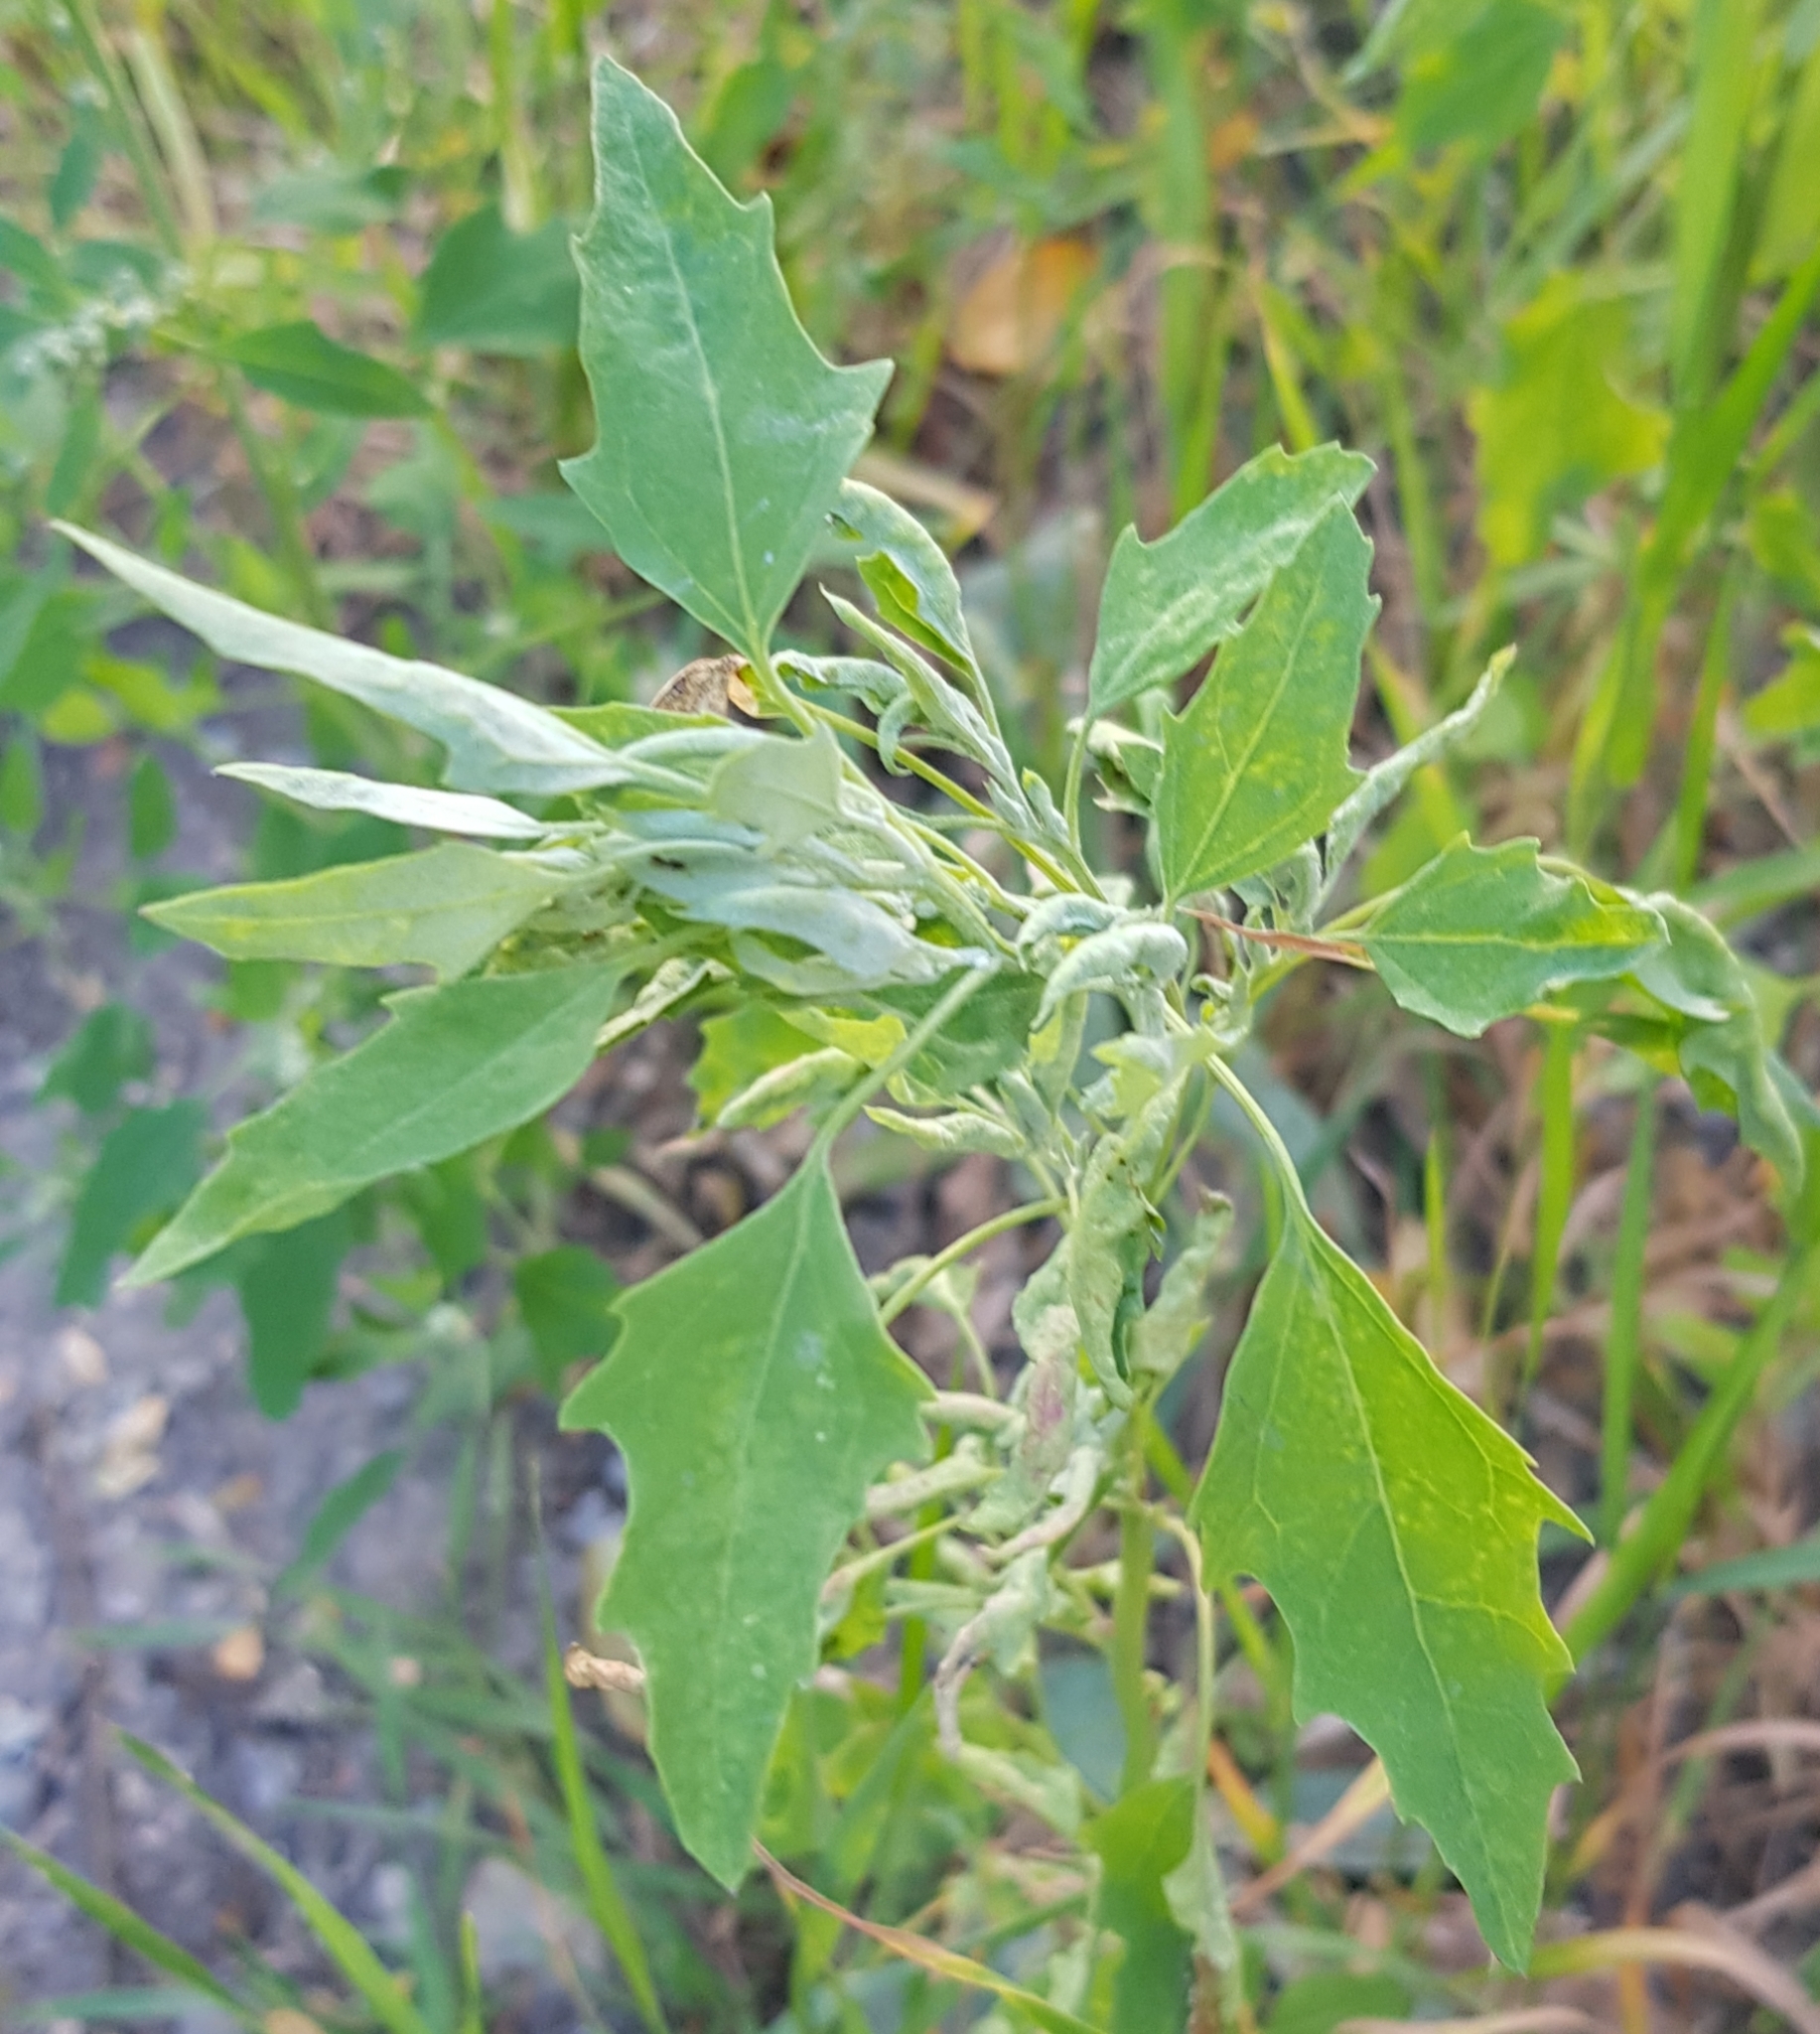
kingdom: Plantae
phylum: Tracheophyta
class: Magnoliopsida
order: Caryophyllales
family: Amaranthaceae
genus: Chenopodium
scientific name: Chenopodium album
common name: Fat-hen
